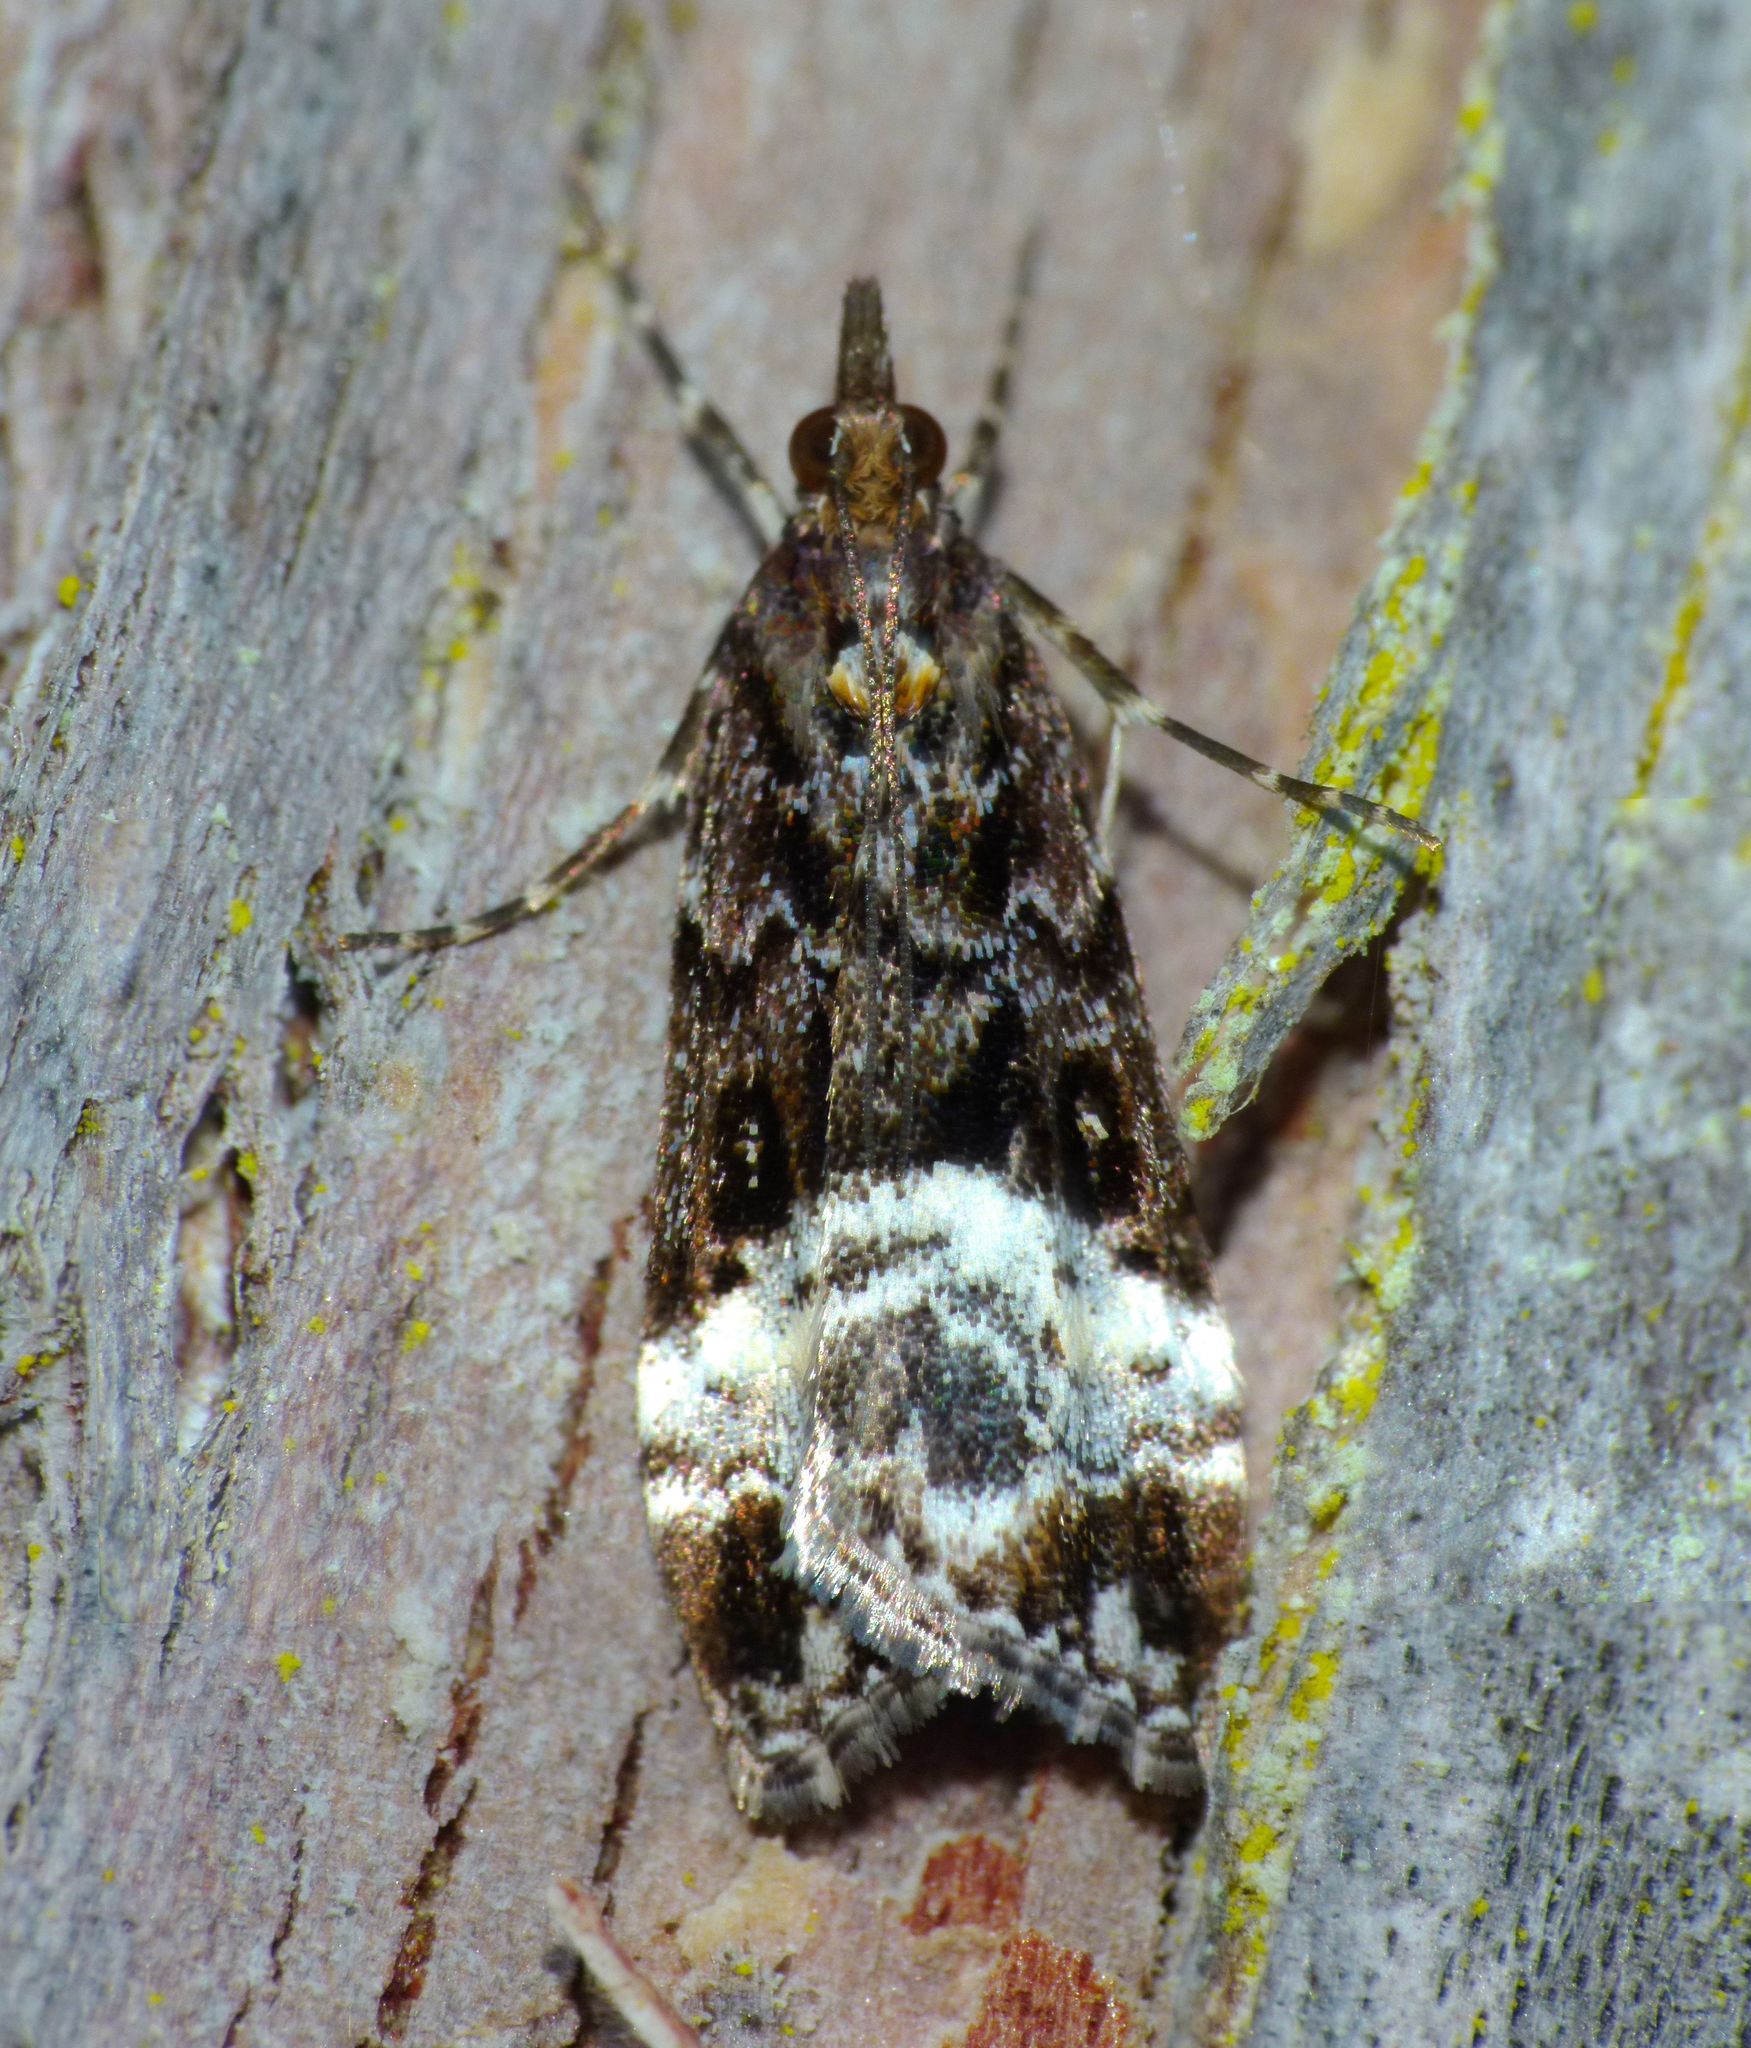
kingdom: Animalia
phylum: Arthropoda
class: Insecta
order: Lepidoptera
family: Crambidae
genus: Scoparia
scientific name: Scoparia minusculalis
